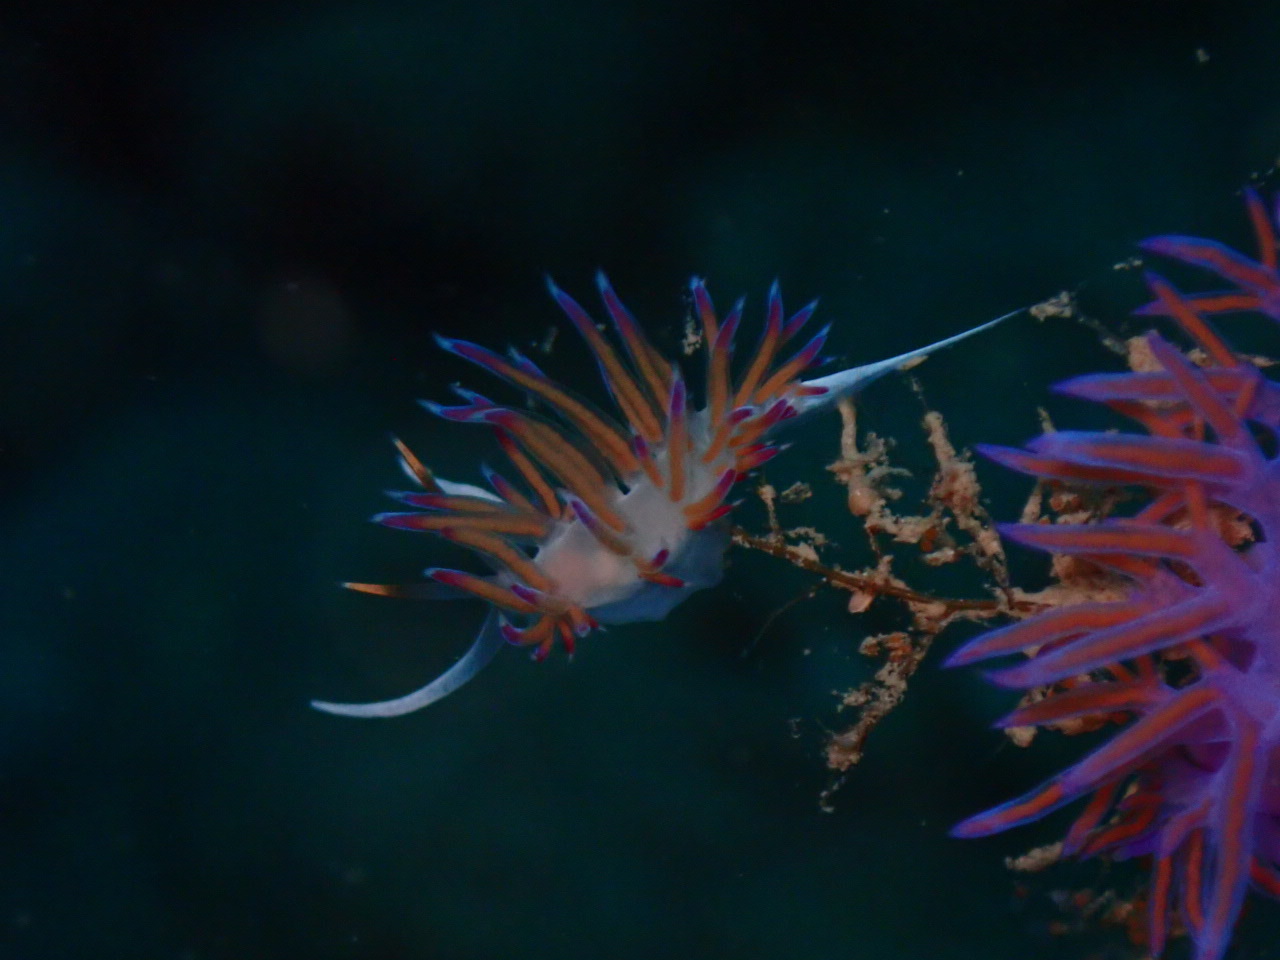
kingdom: Animalia
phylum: Mollusca
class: Gastropoda
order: Nudibranchia
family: Facelinidae
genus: Cratena
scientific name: Cratena peregrina
